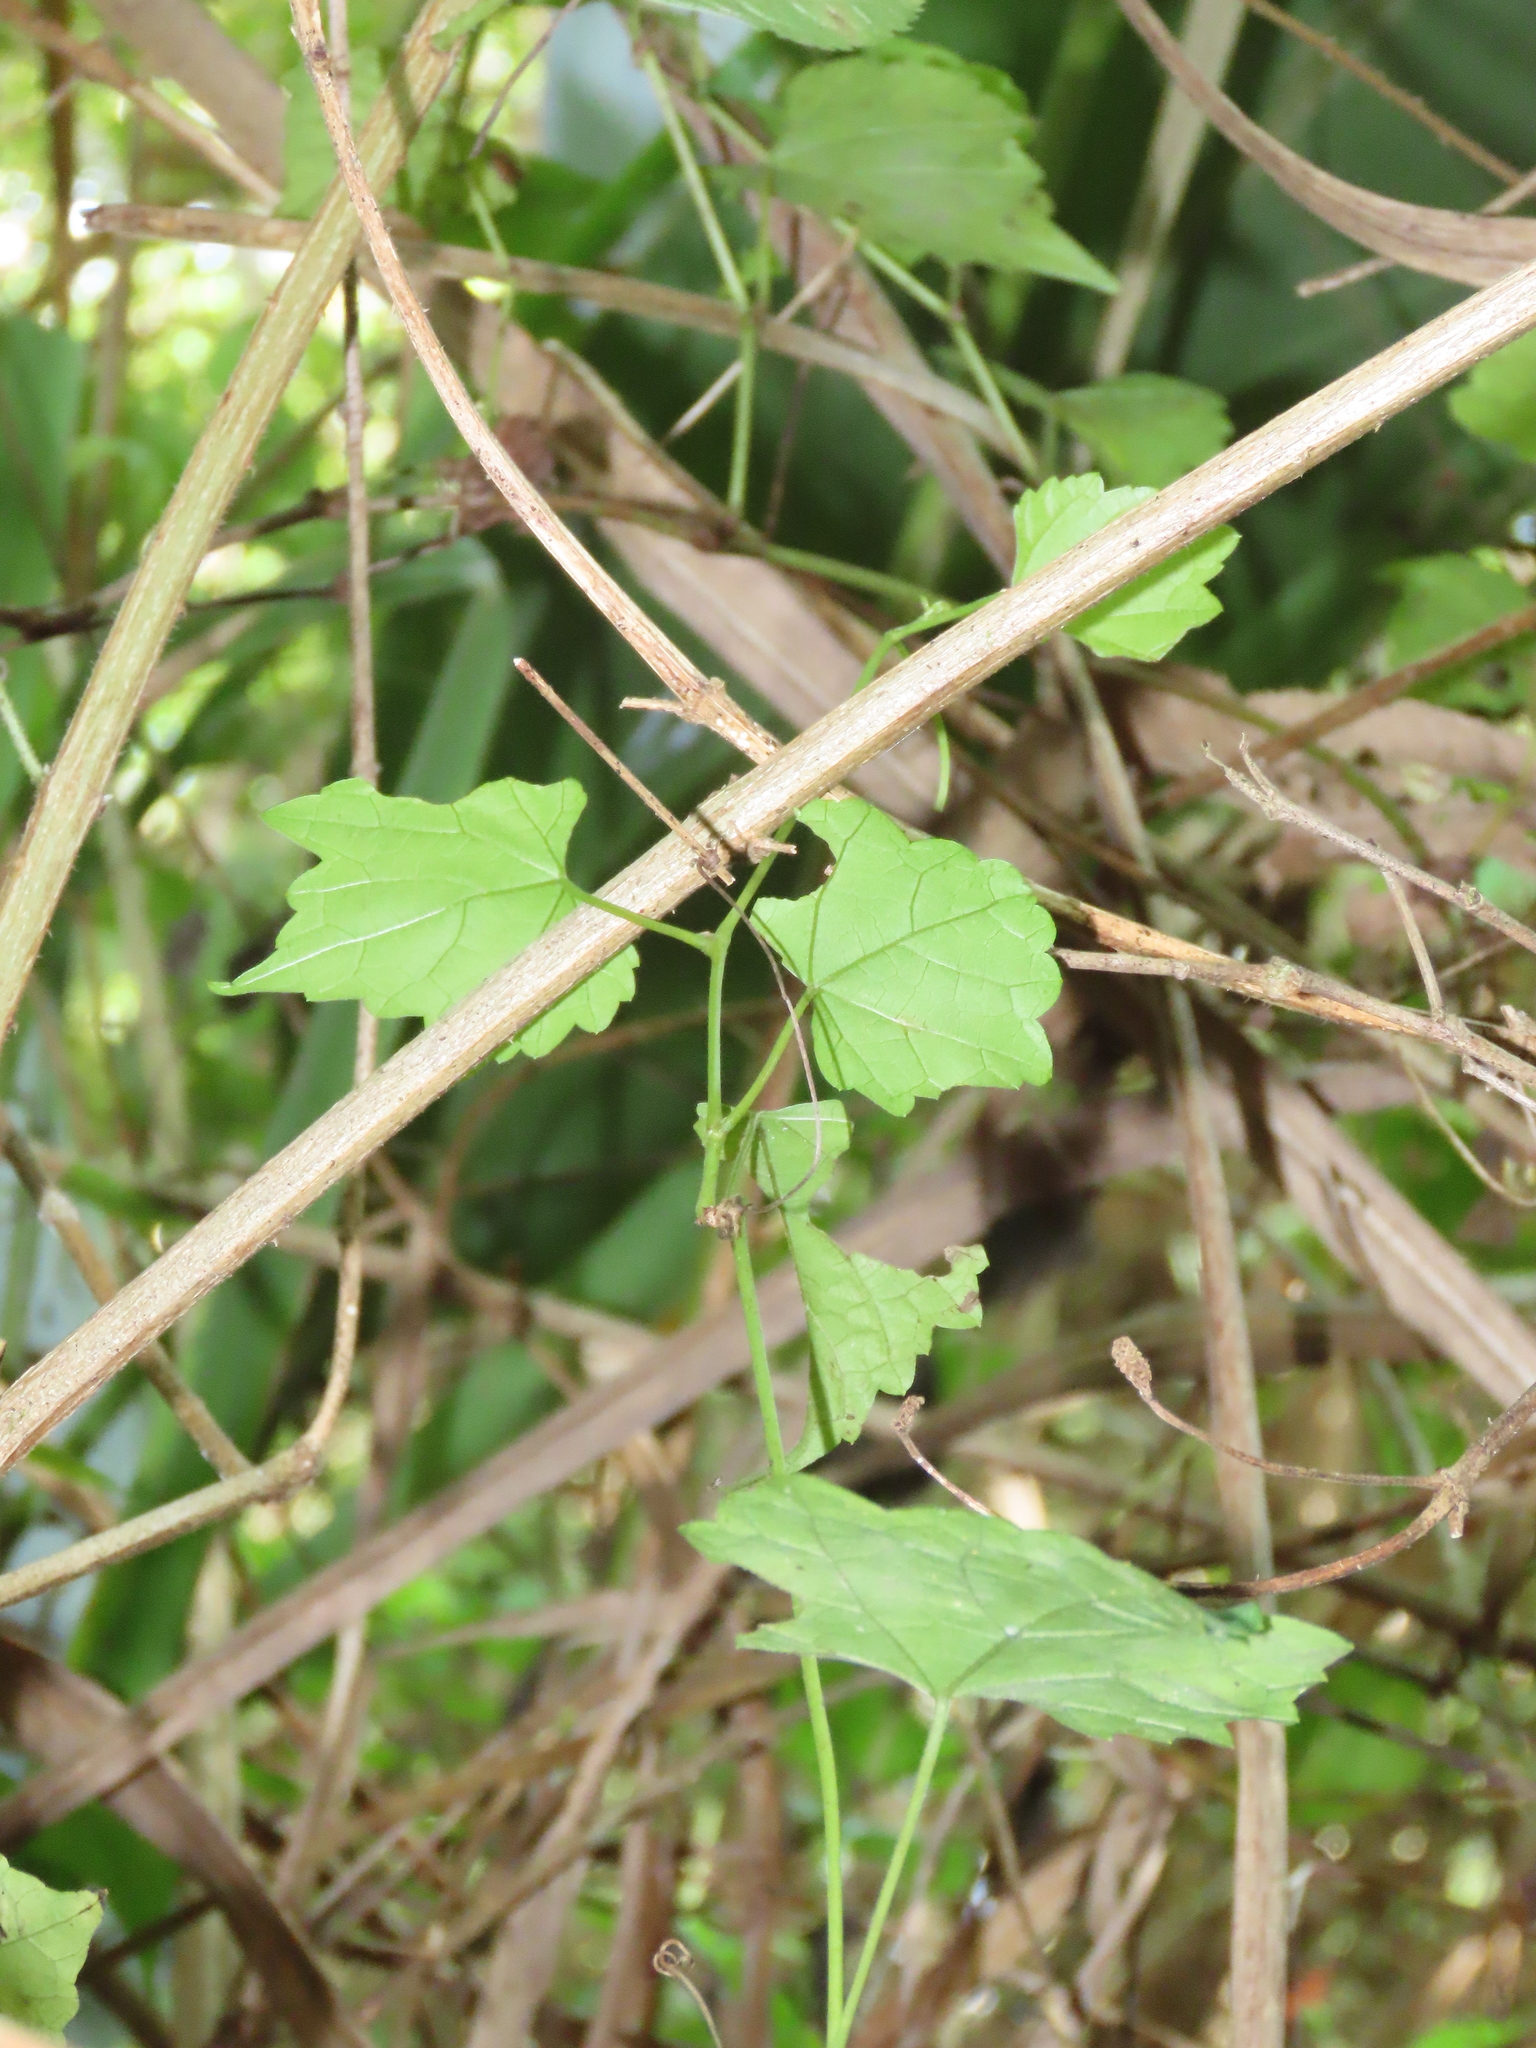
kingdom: Plantae
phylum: Tracheophyta
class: Magnoliopsida
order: Vitales
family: Vitaceae
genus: Ampelopsis
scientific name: Ampelopsis glandulosa
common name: Amur peppervine
